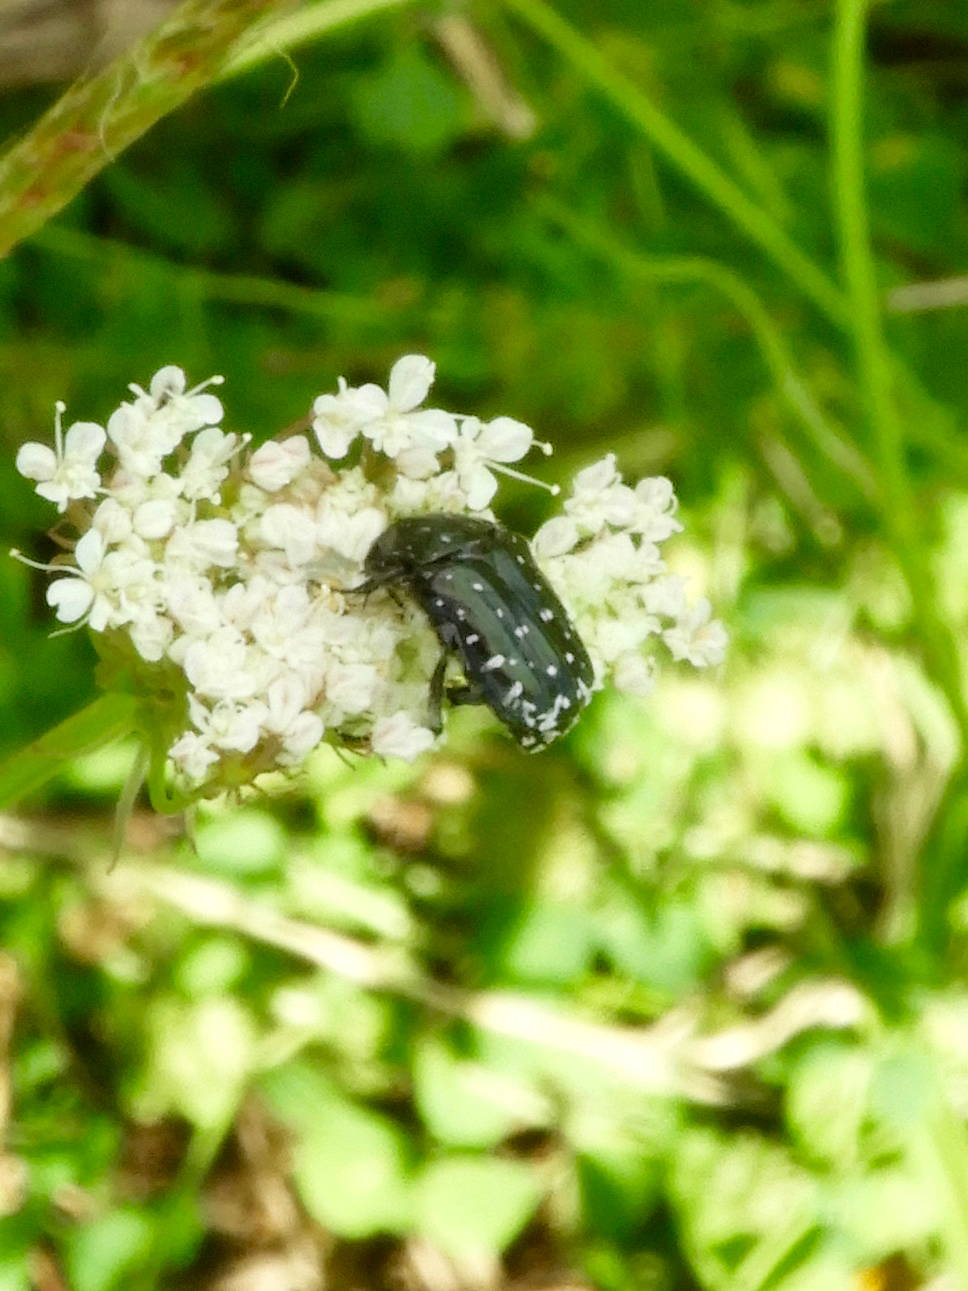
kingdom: Animalia
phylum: Arthropoda
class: Insecta
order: Coleoptera
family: Scarabaeidae
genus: Oxythyrea
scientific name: Oxythyrea funesta
